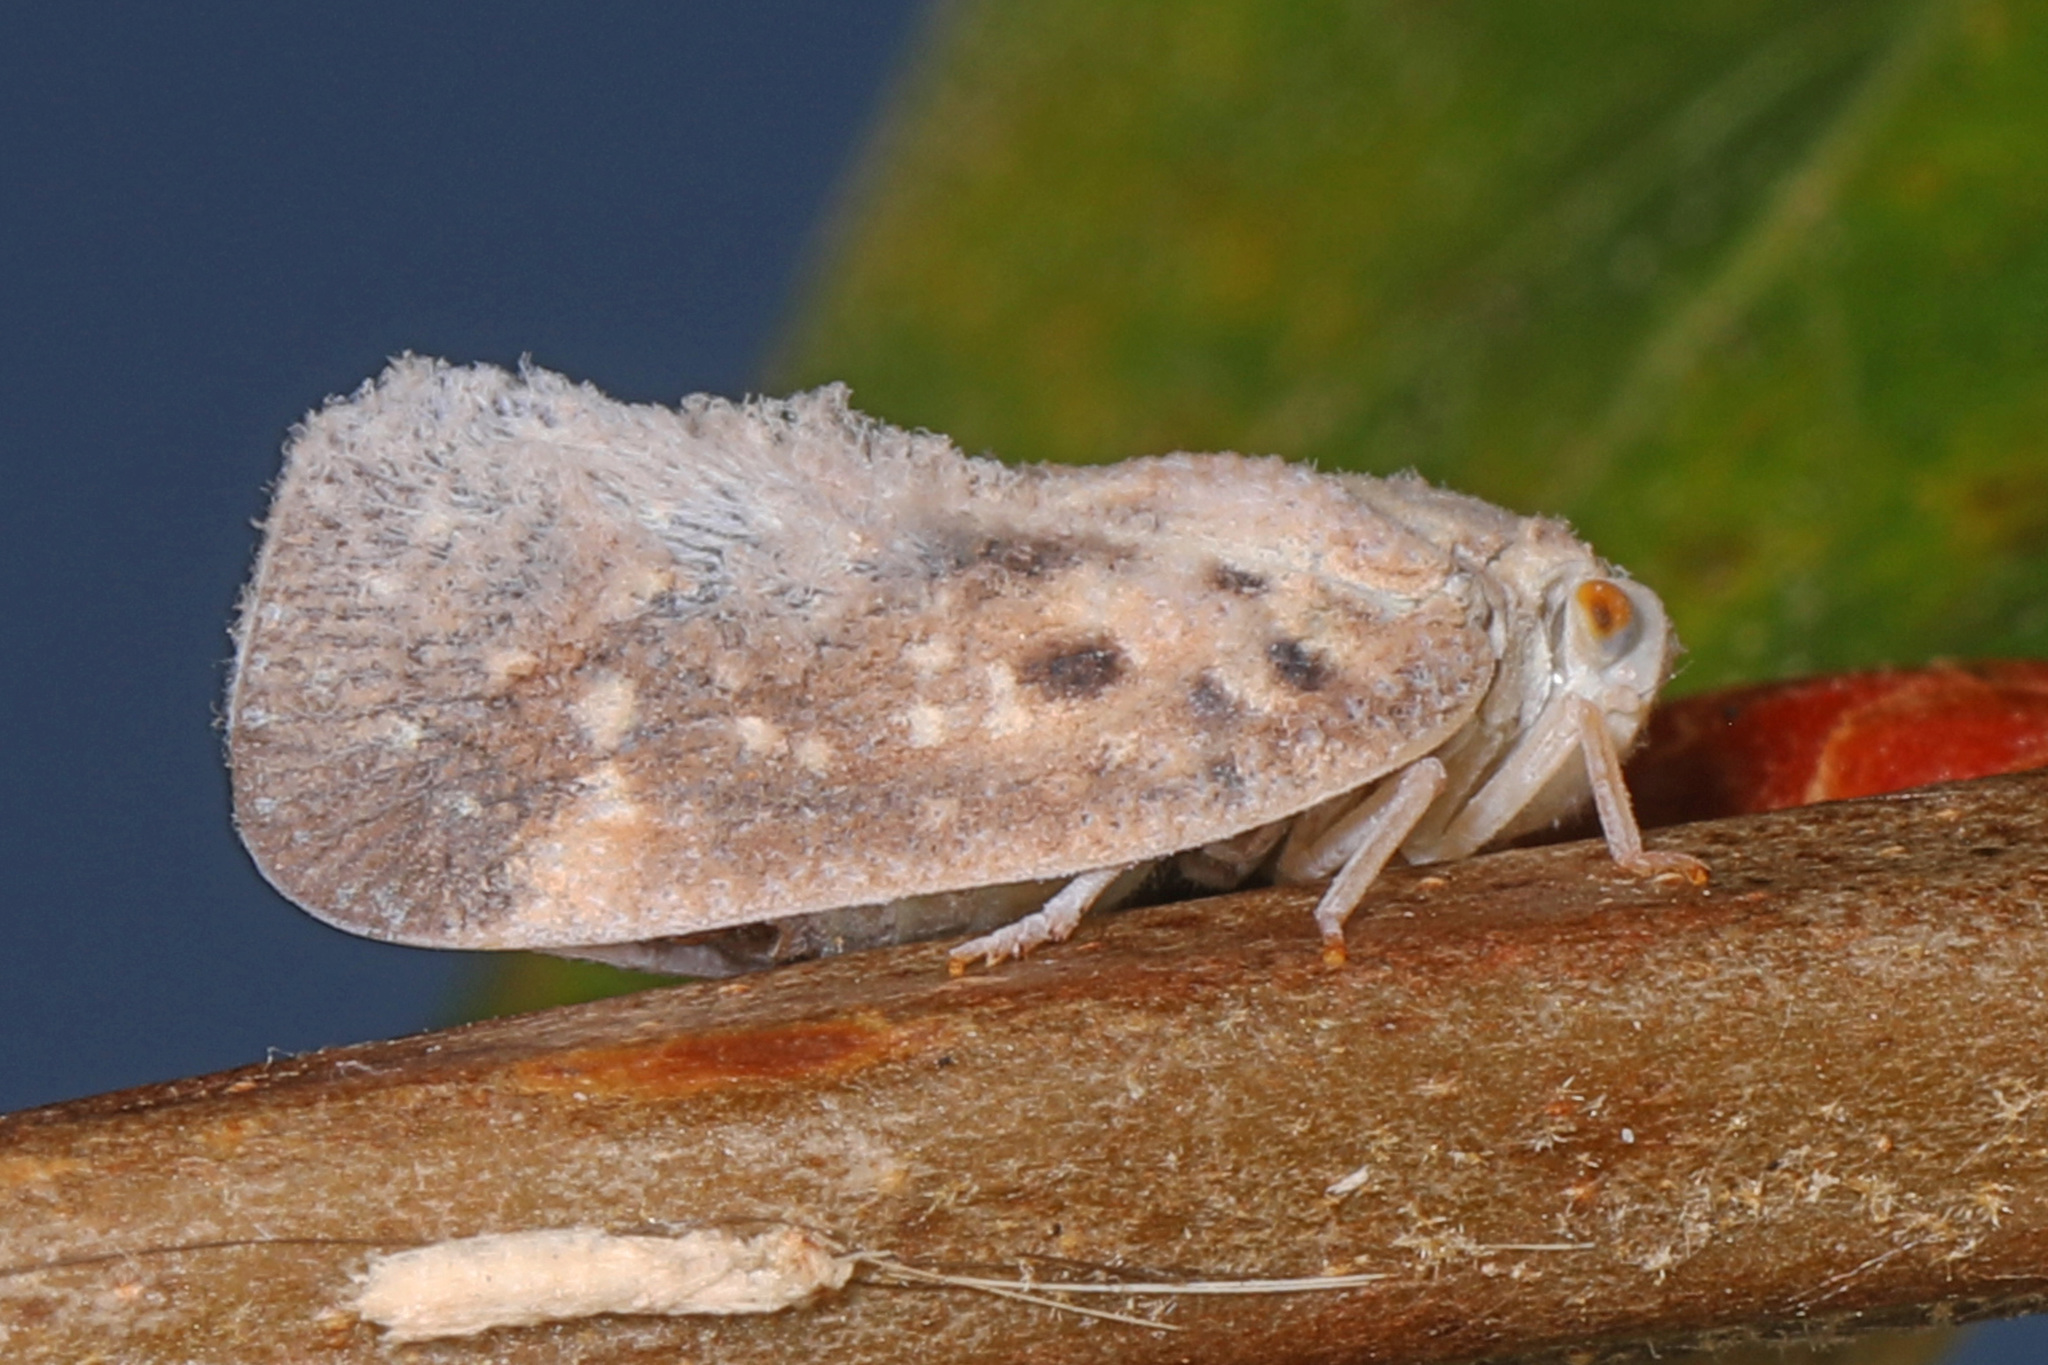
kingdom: Animalia
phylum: Arthropoda
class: Insecta
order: Hemiptera
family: Flatidae
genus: Metcalfa
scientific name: Metcalfa pruinosa
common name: Citrus flatid planthopper
